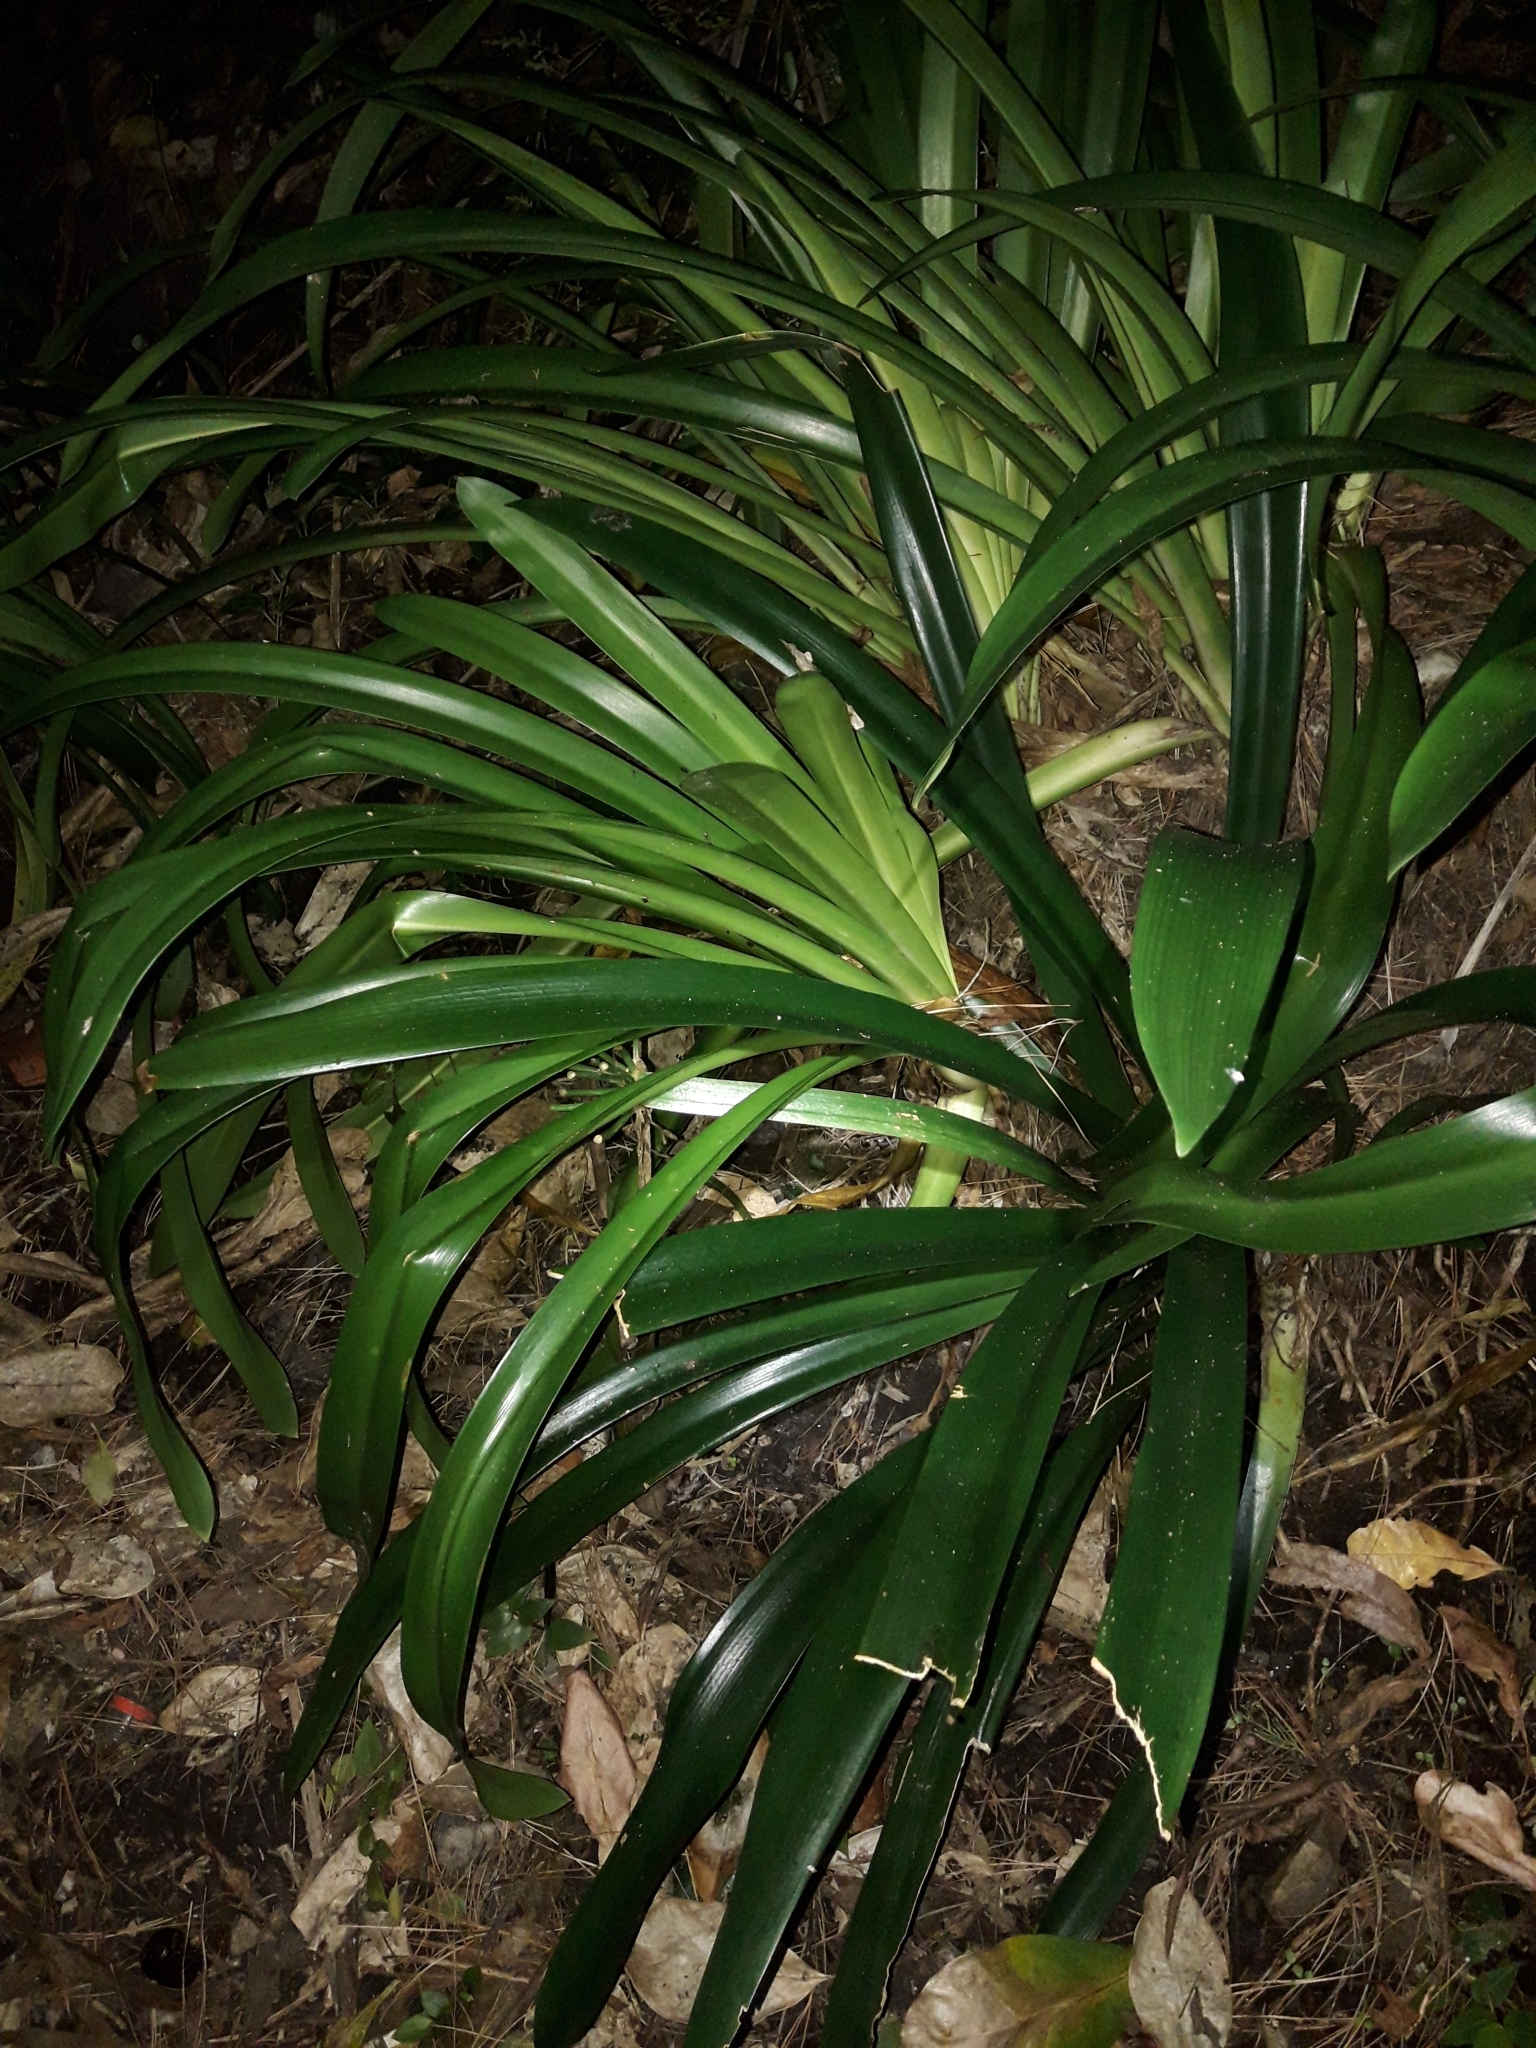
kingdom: Plantae
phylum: Tracheophyta
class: Liliopsida
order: Asparagales
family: Amaryllidaceae
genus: Agapanthus
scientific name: Agapanthus praecox
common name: African-lily
